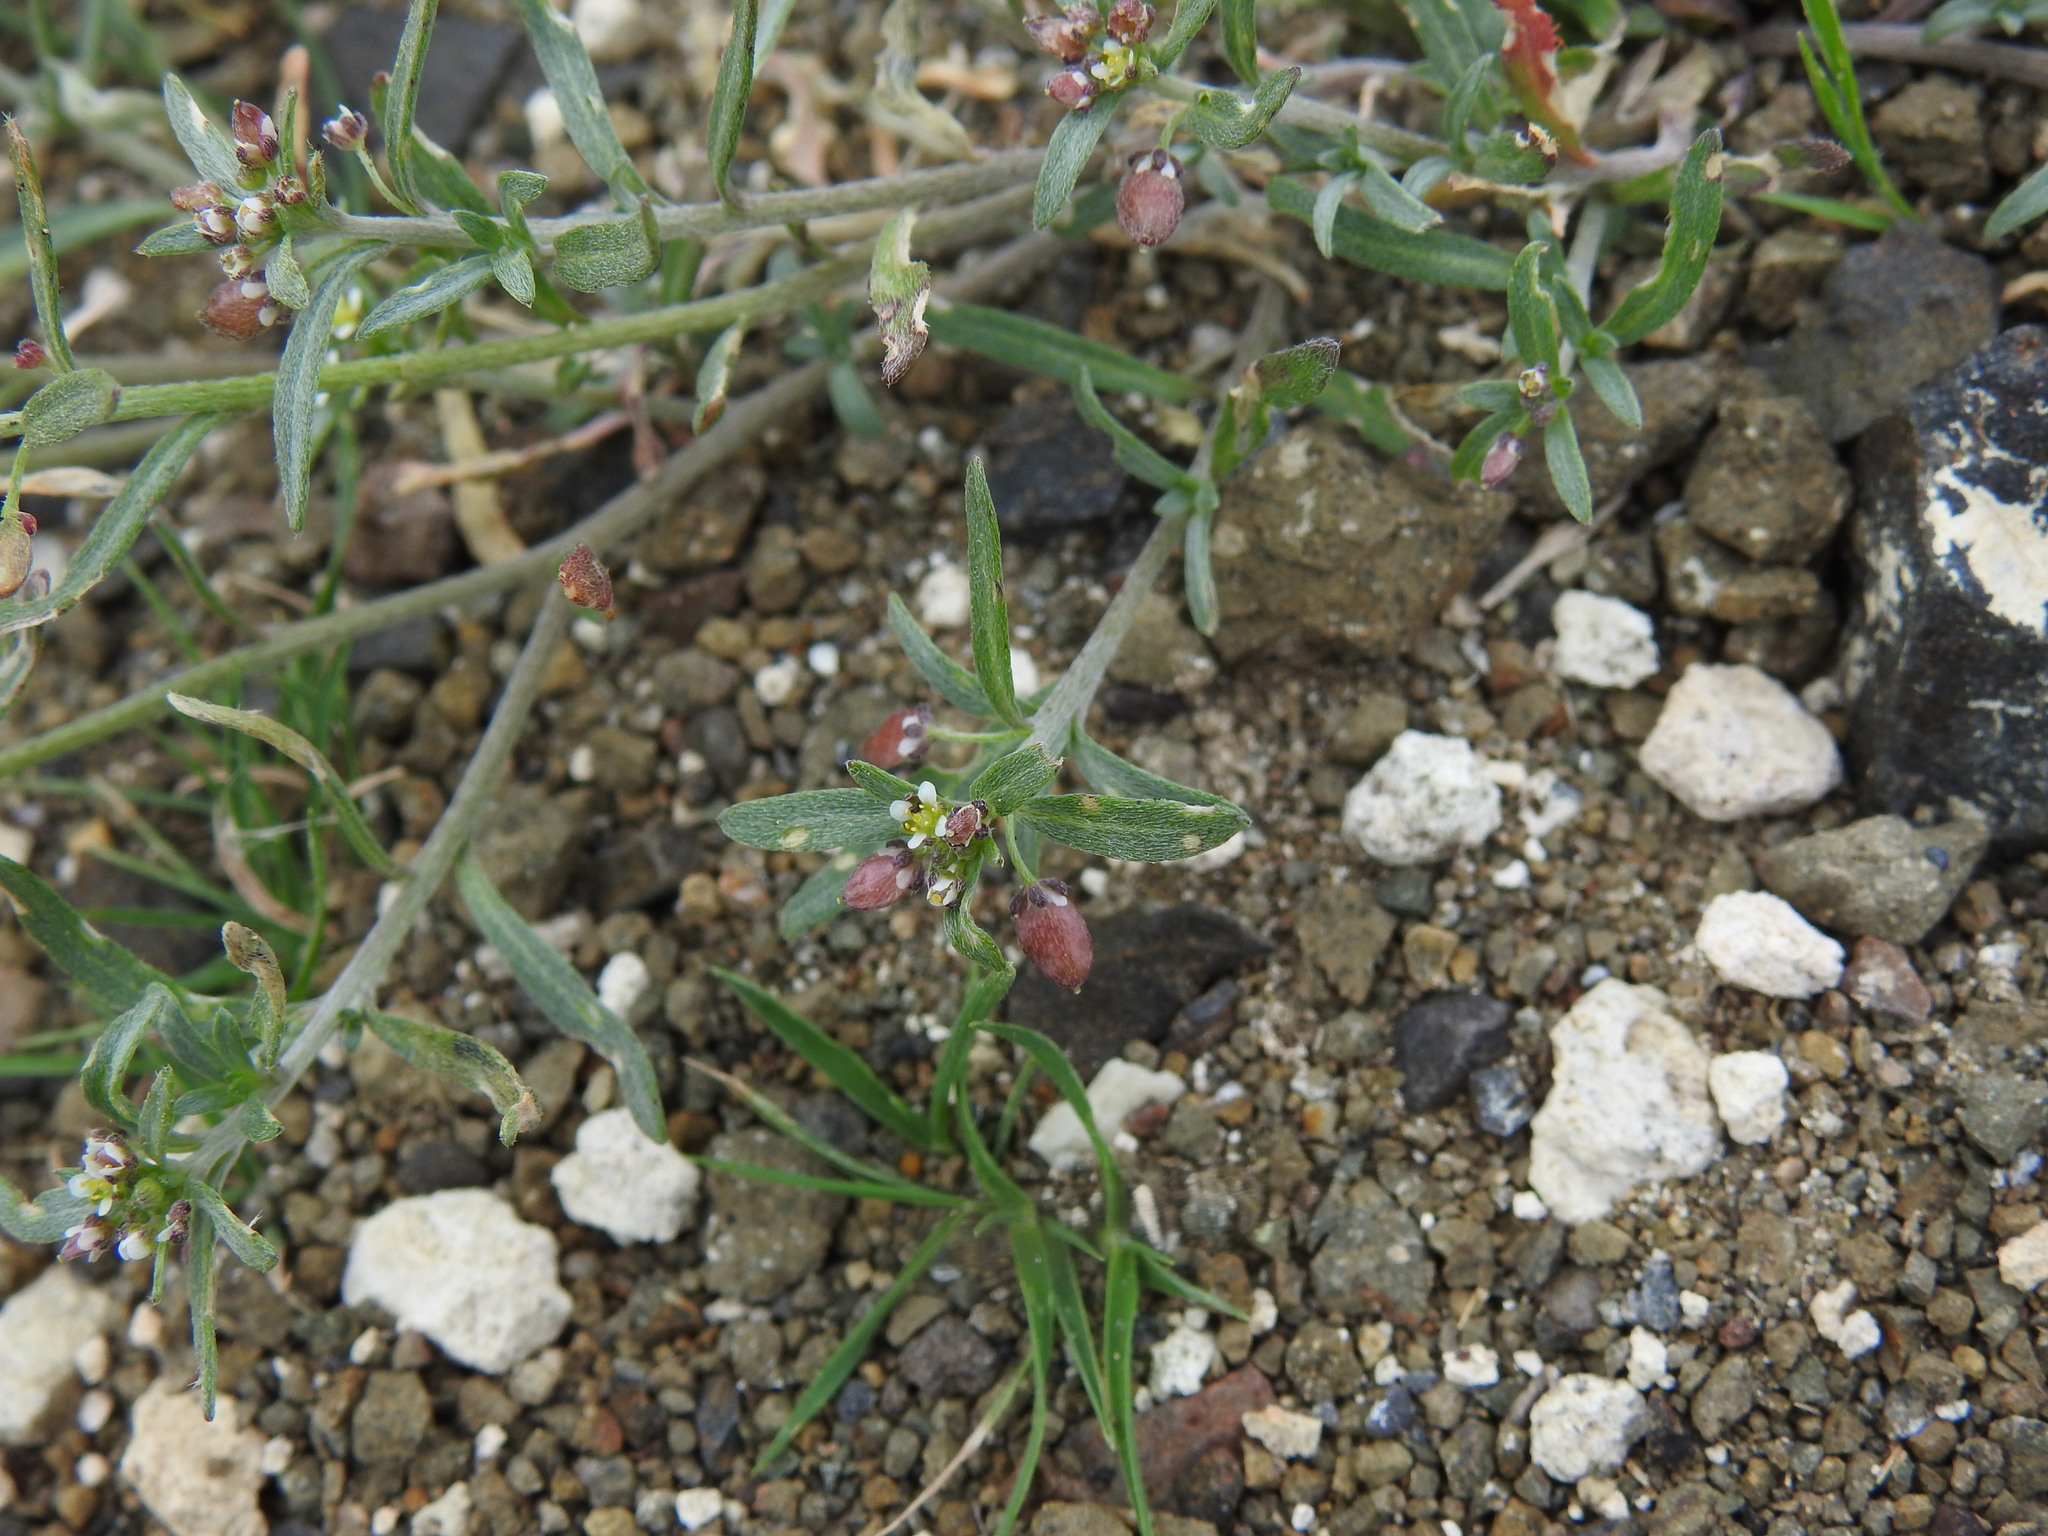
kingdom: Plantae
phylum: Tracheophyta
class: Magnoliopsida
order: Brassicales
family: Brassicaceae
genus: Lobularia
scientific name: Lobularia libyca
